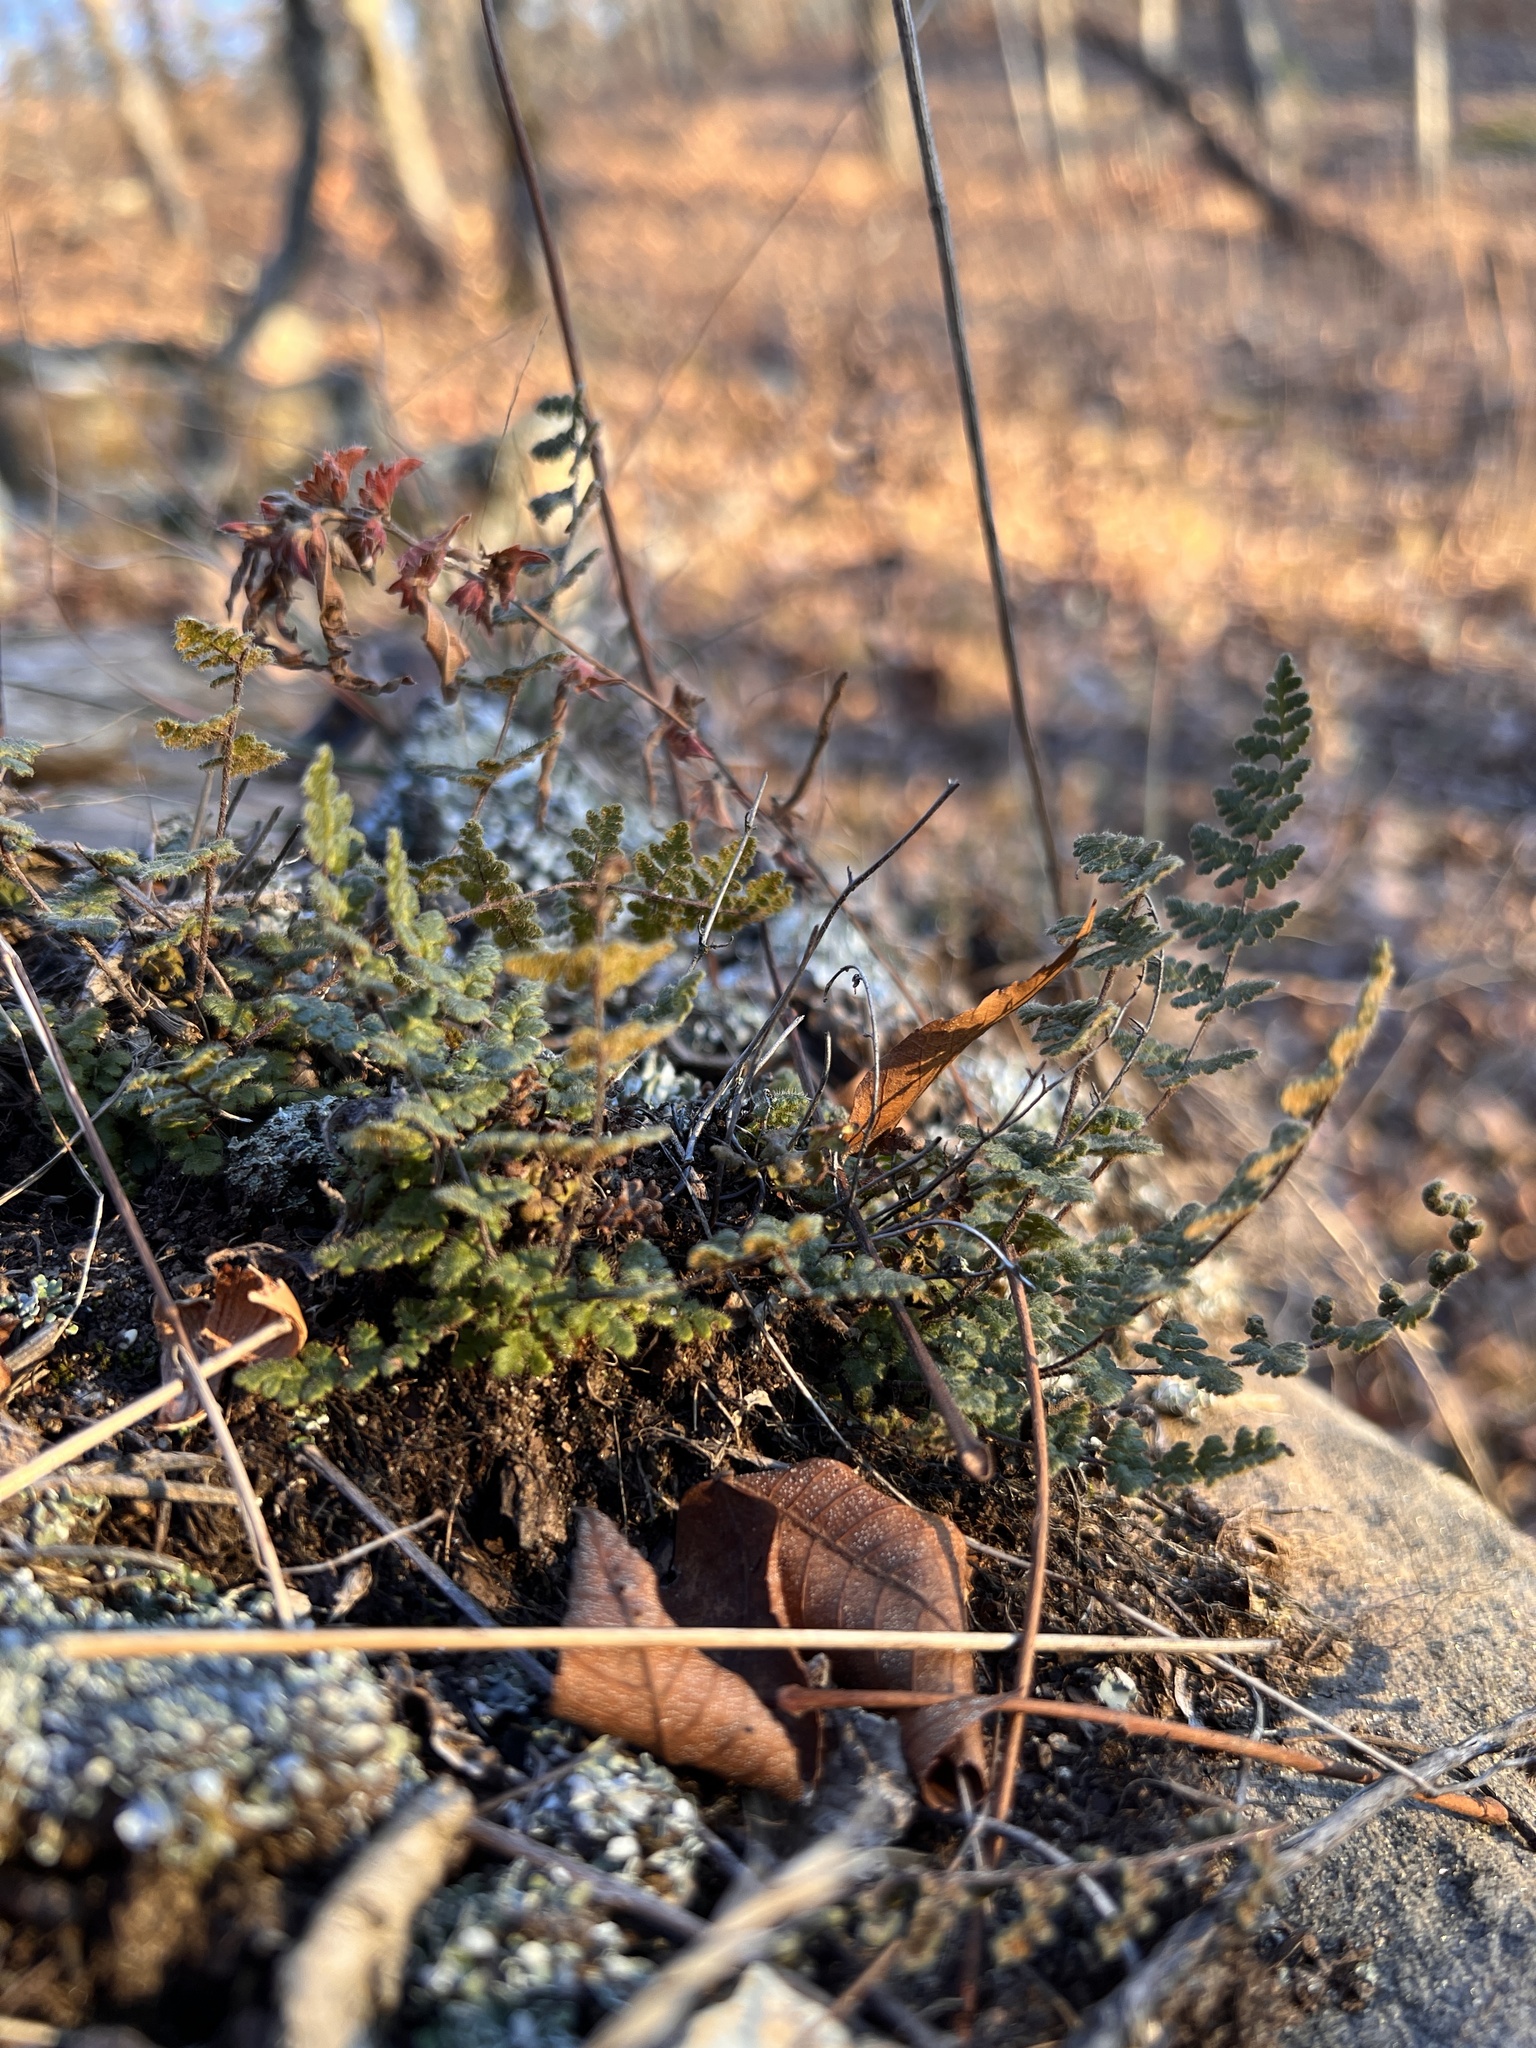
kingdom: Plantae
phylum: Tracheophyta
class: Polypodiopsida
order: Polypodiales
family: Pteridaceae
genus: Myriopteris
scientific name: Myriopteris lanosa
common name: Hairy lip fern
